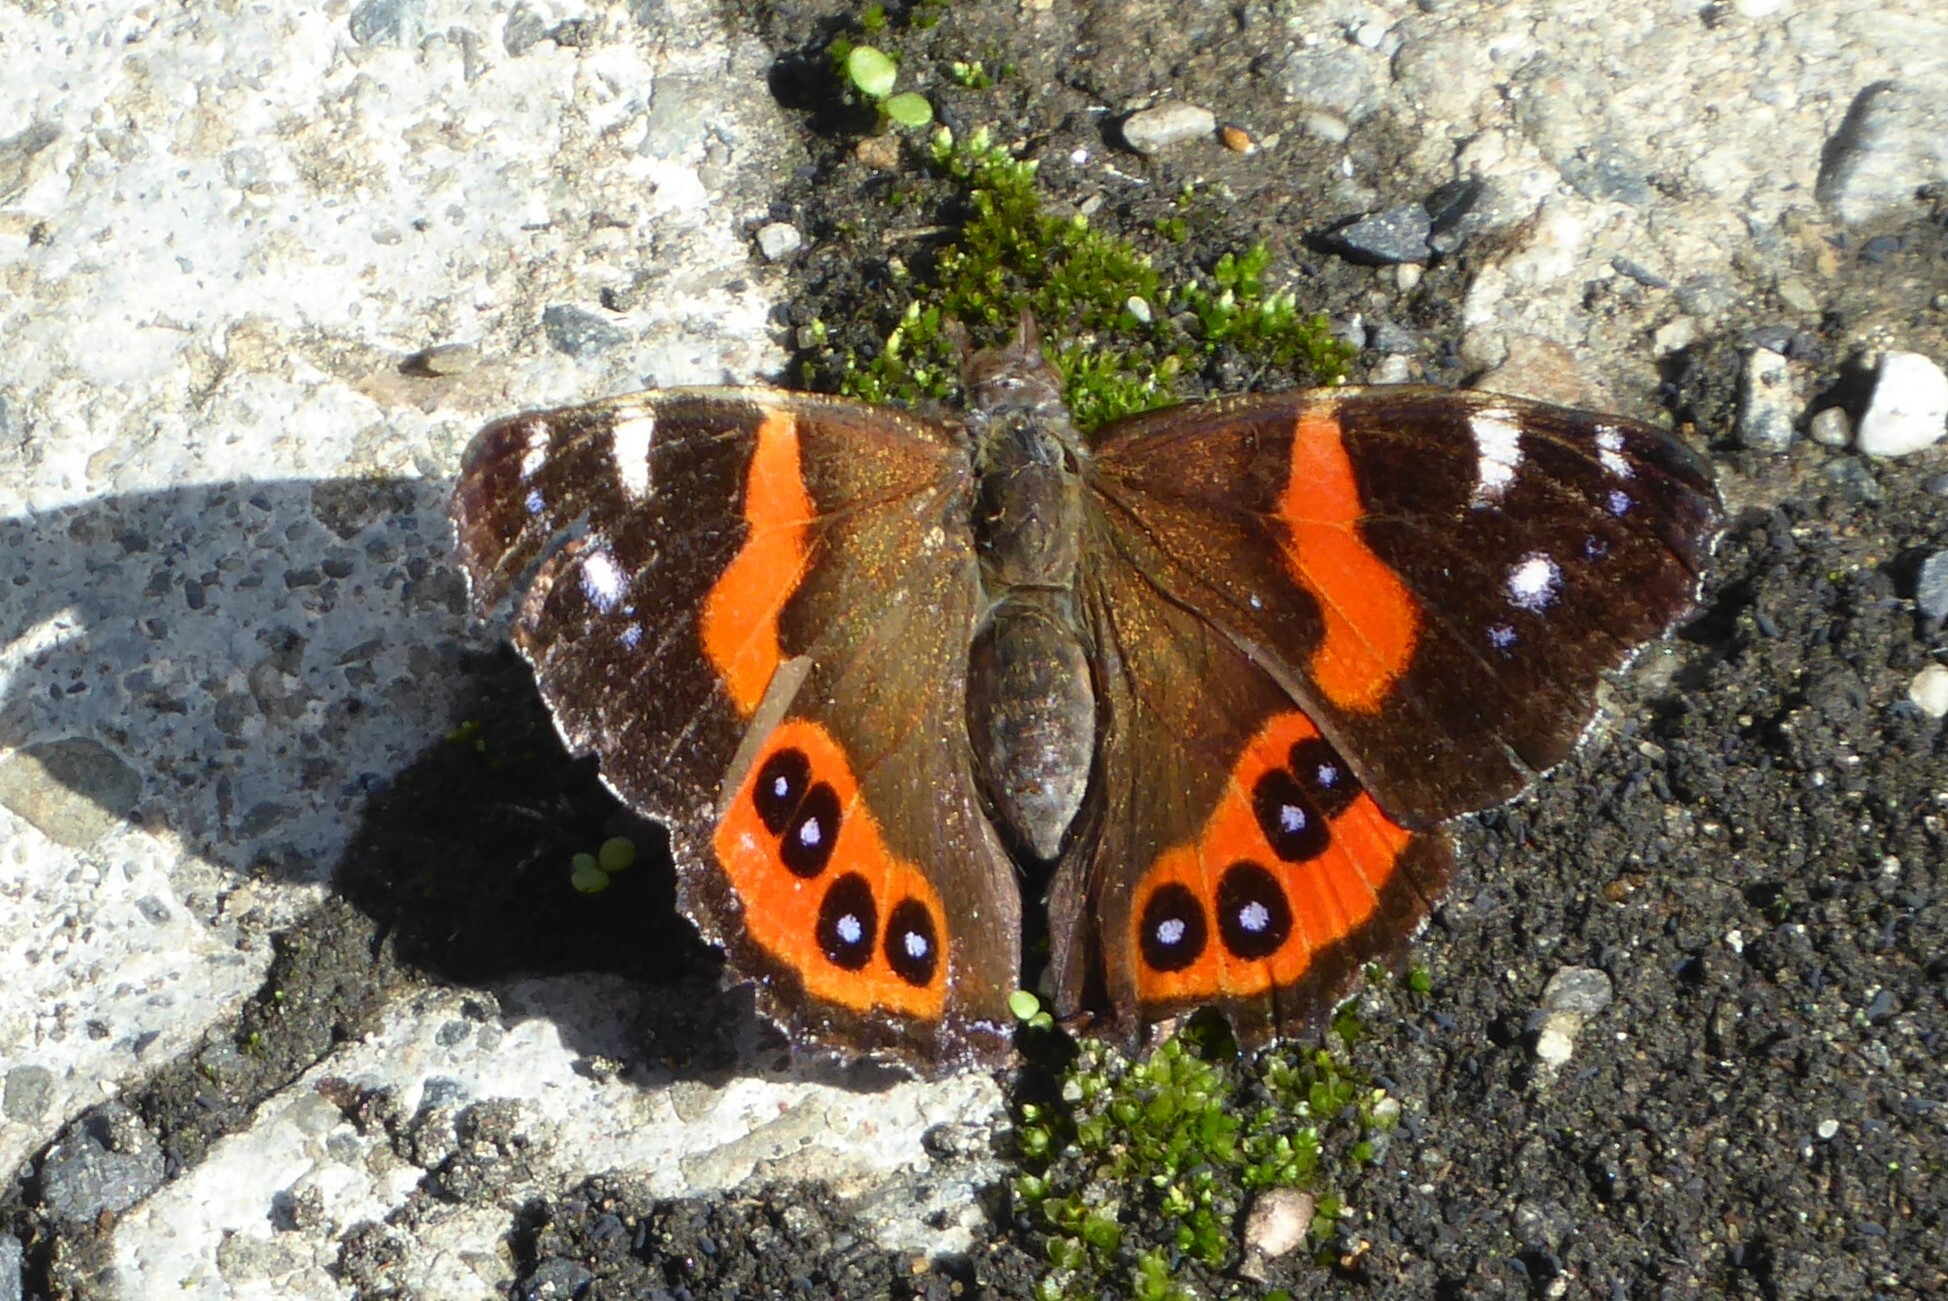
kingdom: Animalia
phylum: Arthropoda
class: Insecta
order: Lepidoptera
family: Nymphalidae
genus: Vanessa
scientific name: Vanessa gonerilla
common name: New zealand red admiral
